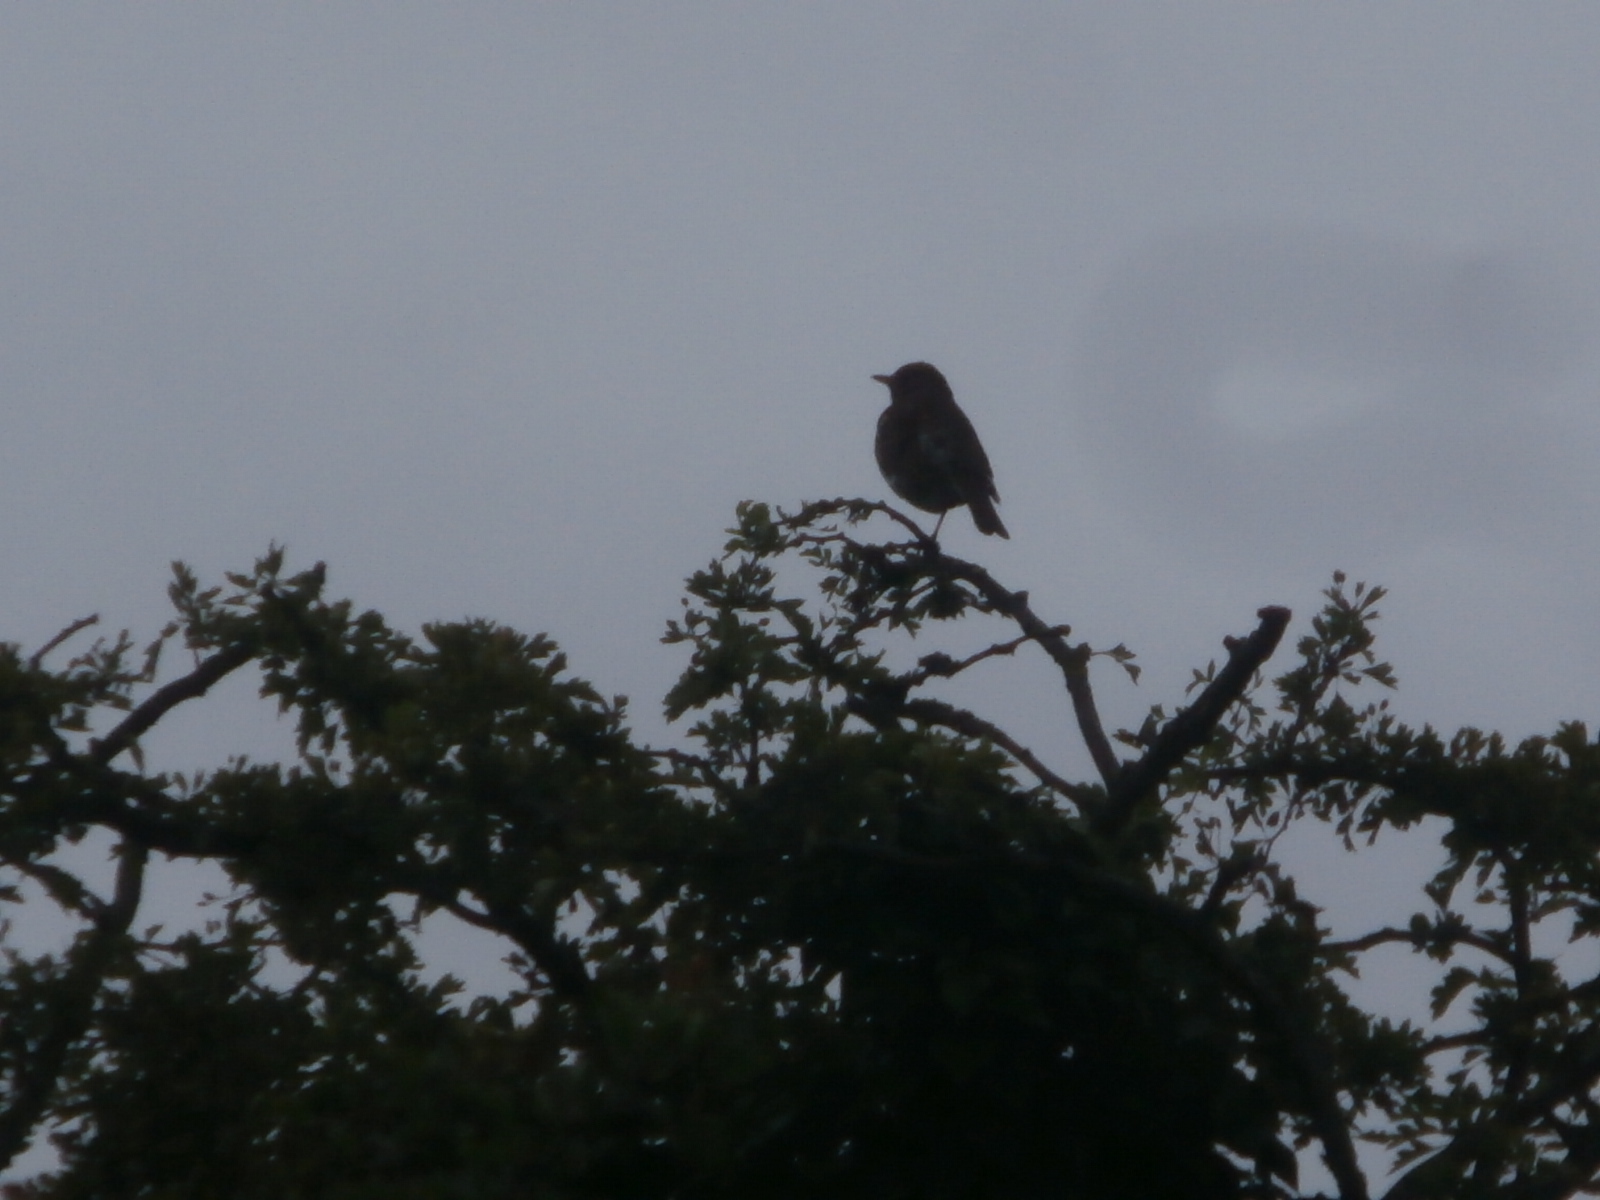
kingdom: Animalia
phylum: Chordata
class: Aves
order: Passeriformes
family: Turdidae
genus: Turdus
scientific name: Turdus merula
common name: Common blackbird
